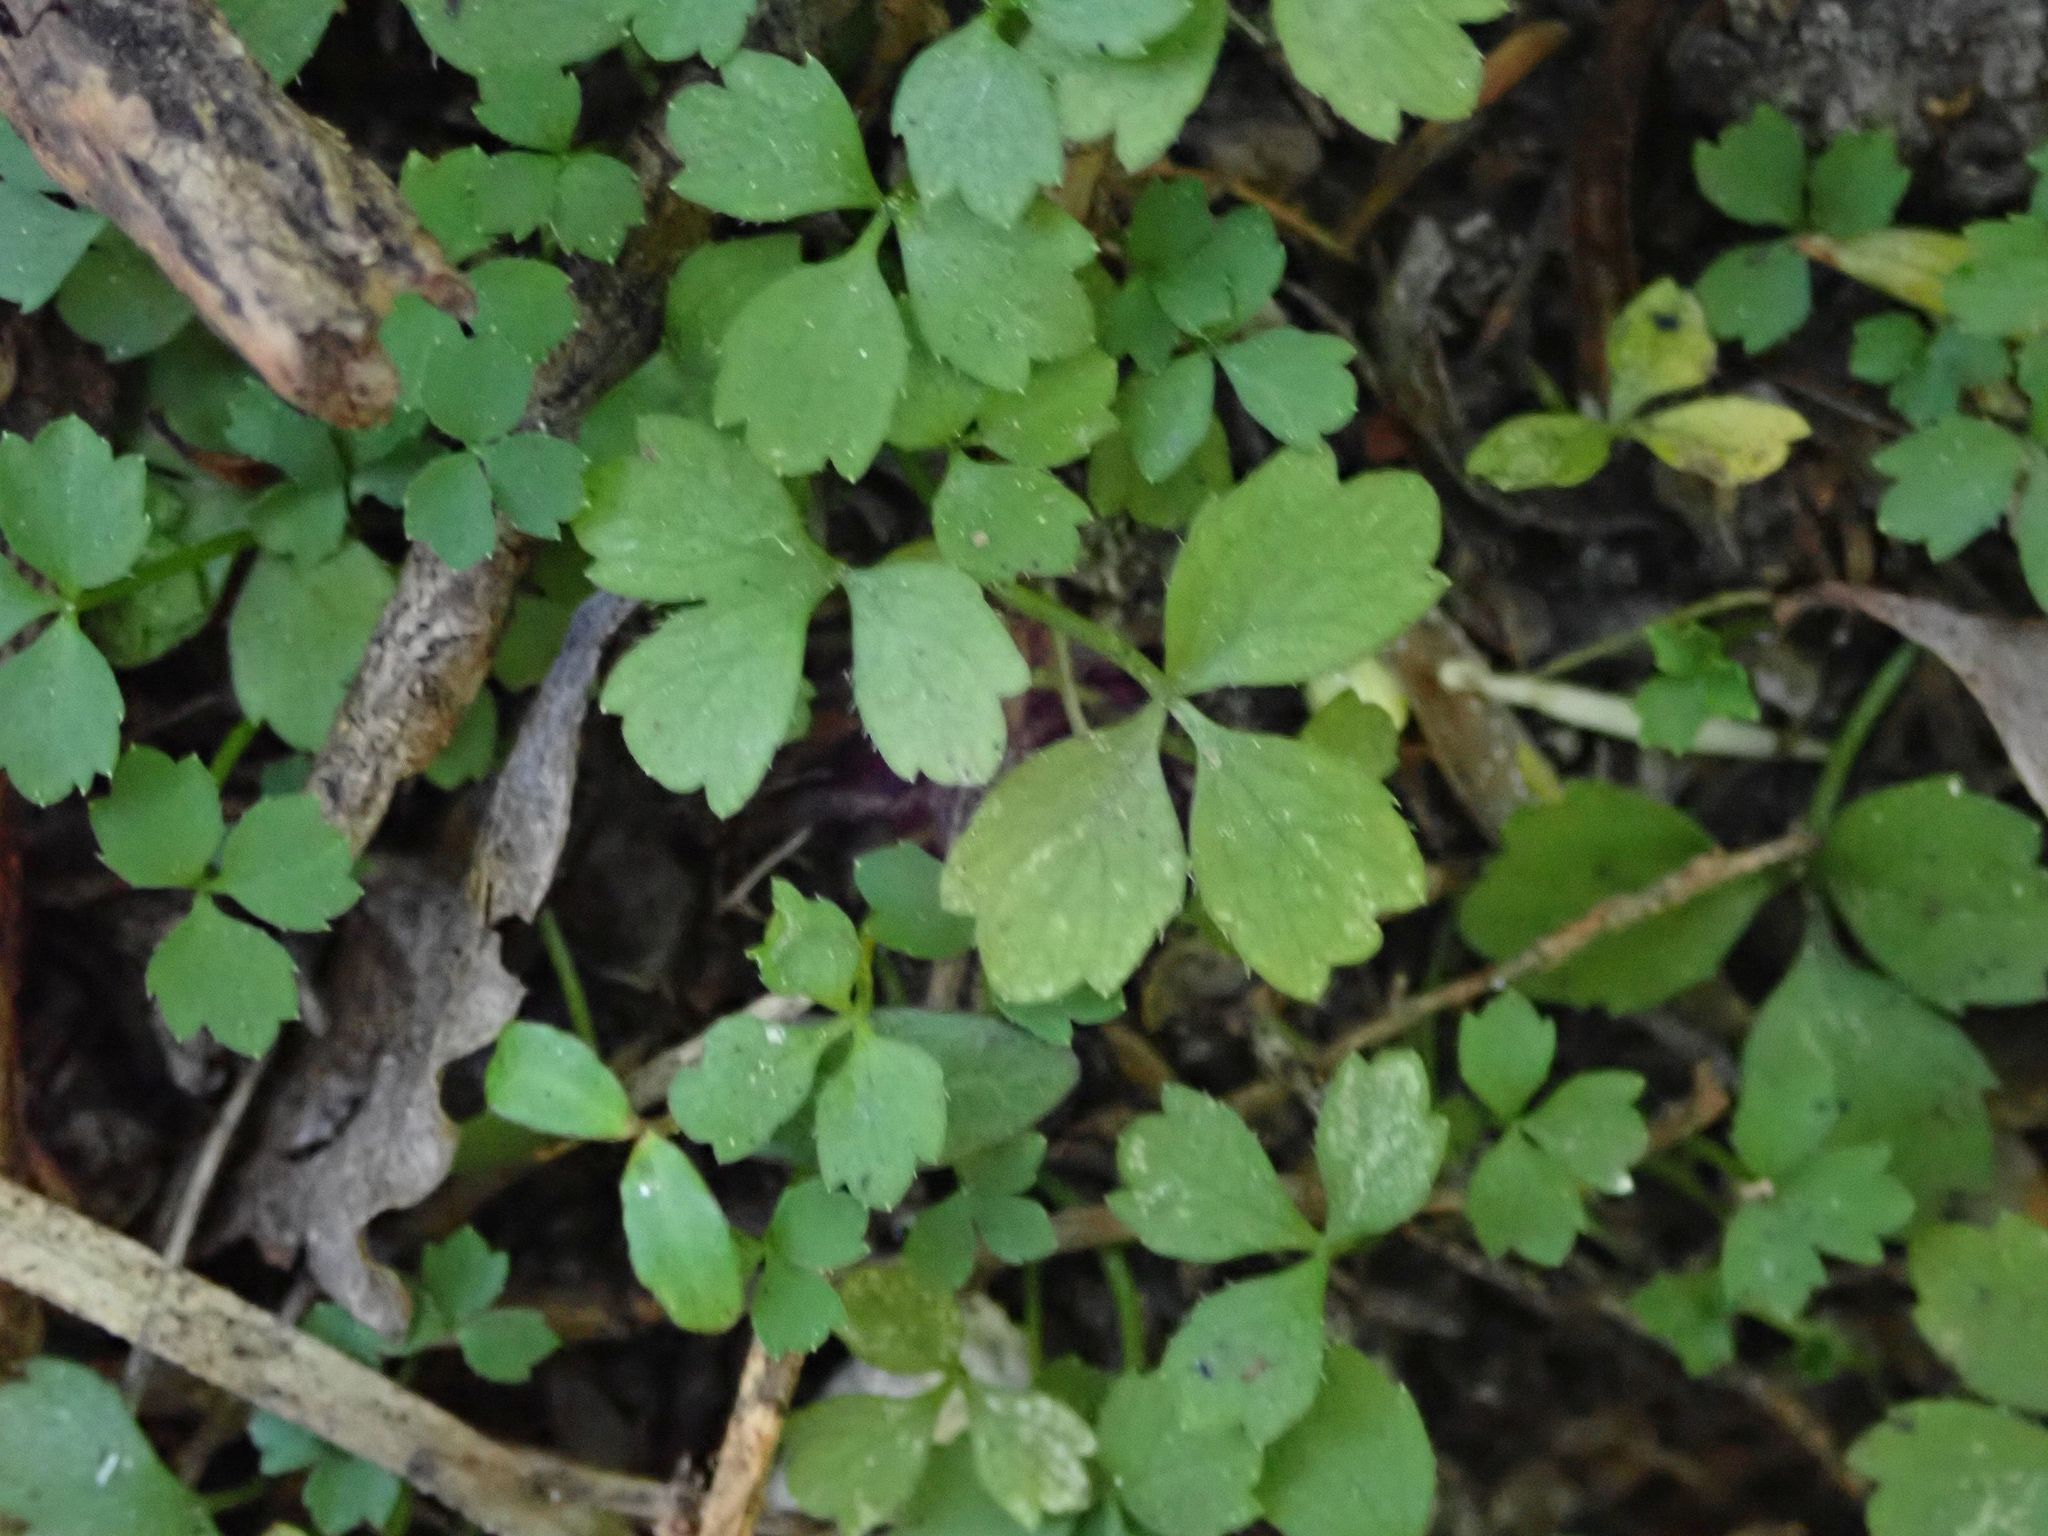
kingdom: Plantae
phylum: Tracheophyta
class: Magnoliopsida
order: Apiales
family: Apiaceae
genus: Azorella
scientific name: Azorella hookeri
